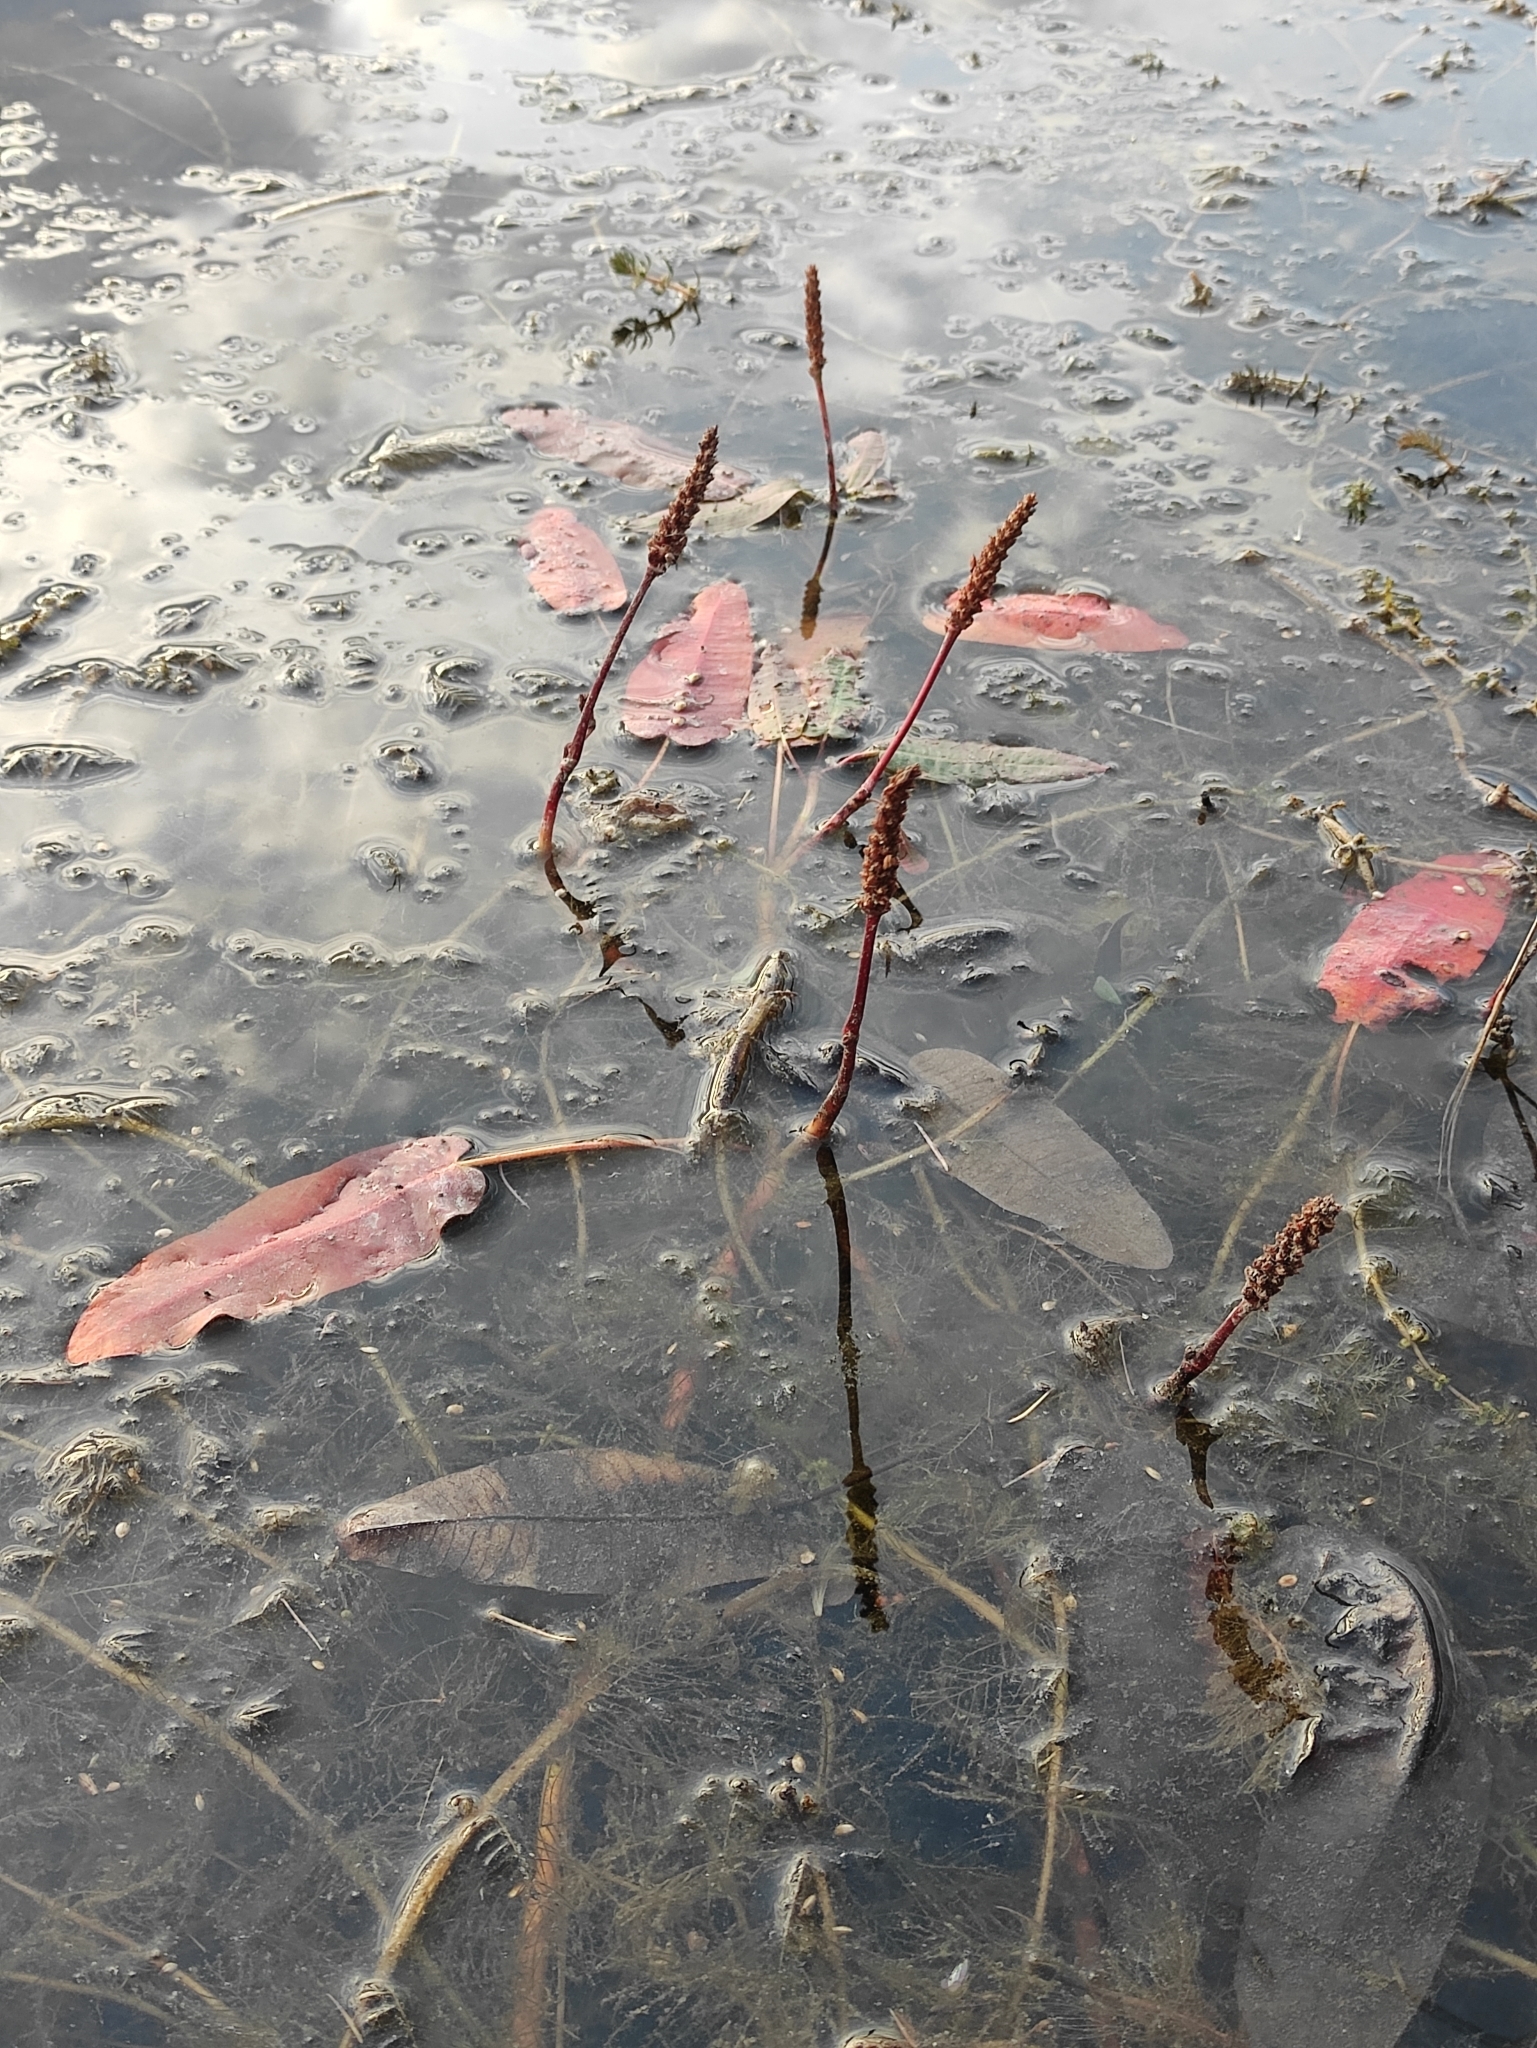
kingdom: Plantae
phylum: Tracheophyta
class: Magnoliopsida
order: Caryophyllales
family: Polygonaceae
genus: Persicaria
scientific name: Persicaria amphibia
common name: Amphibious bistort
